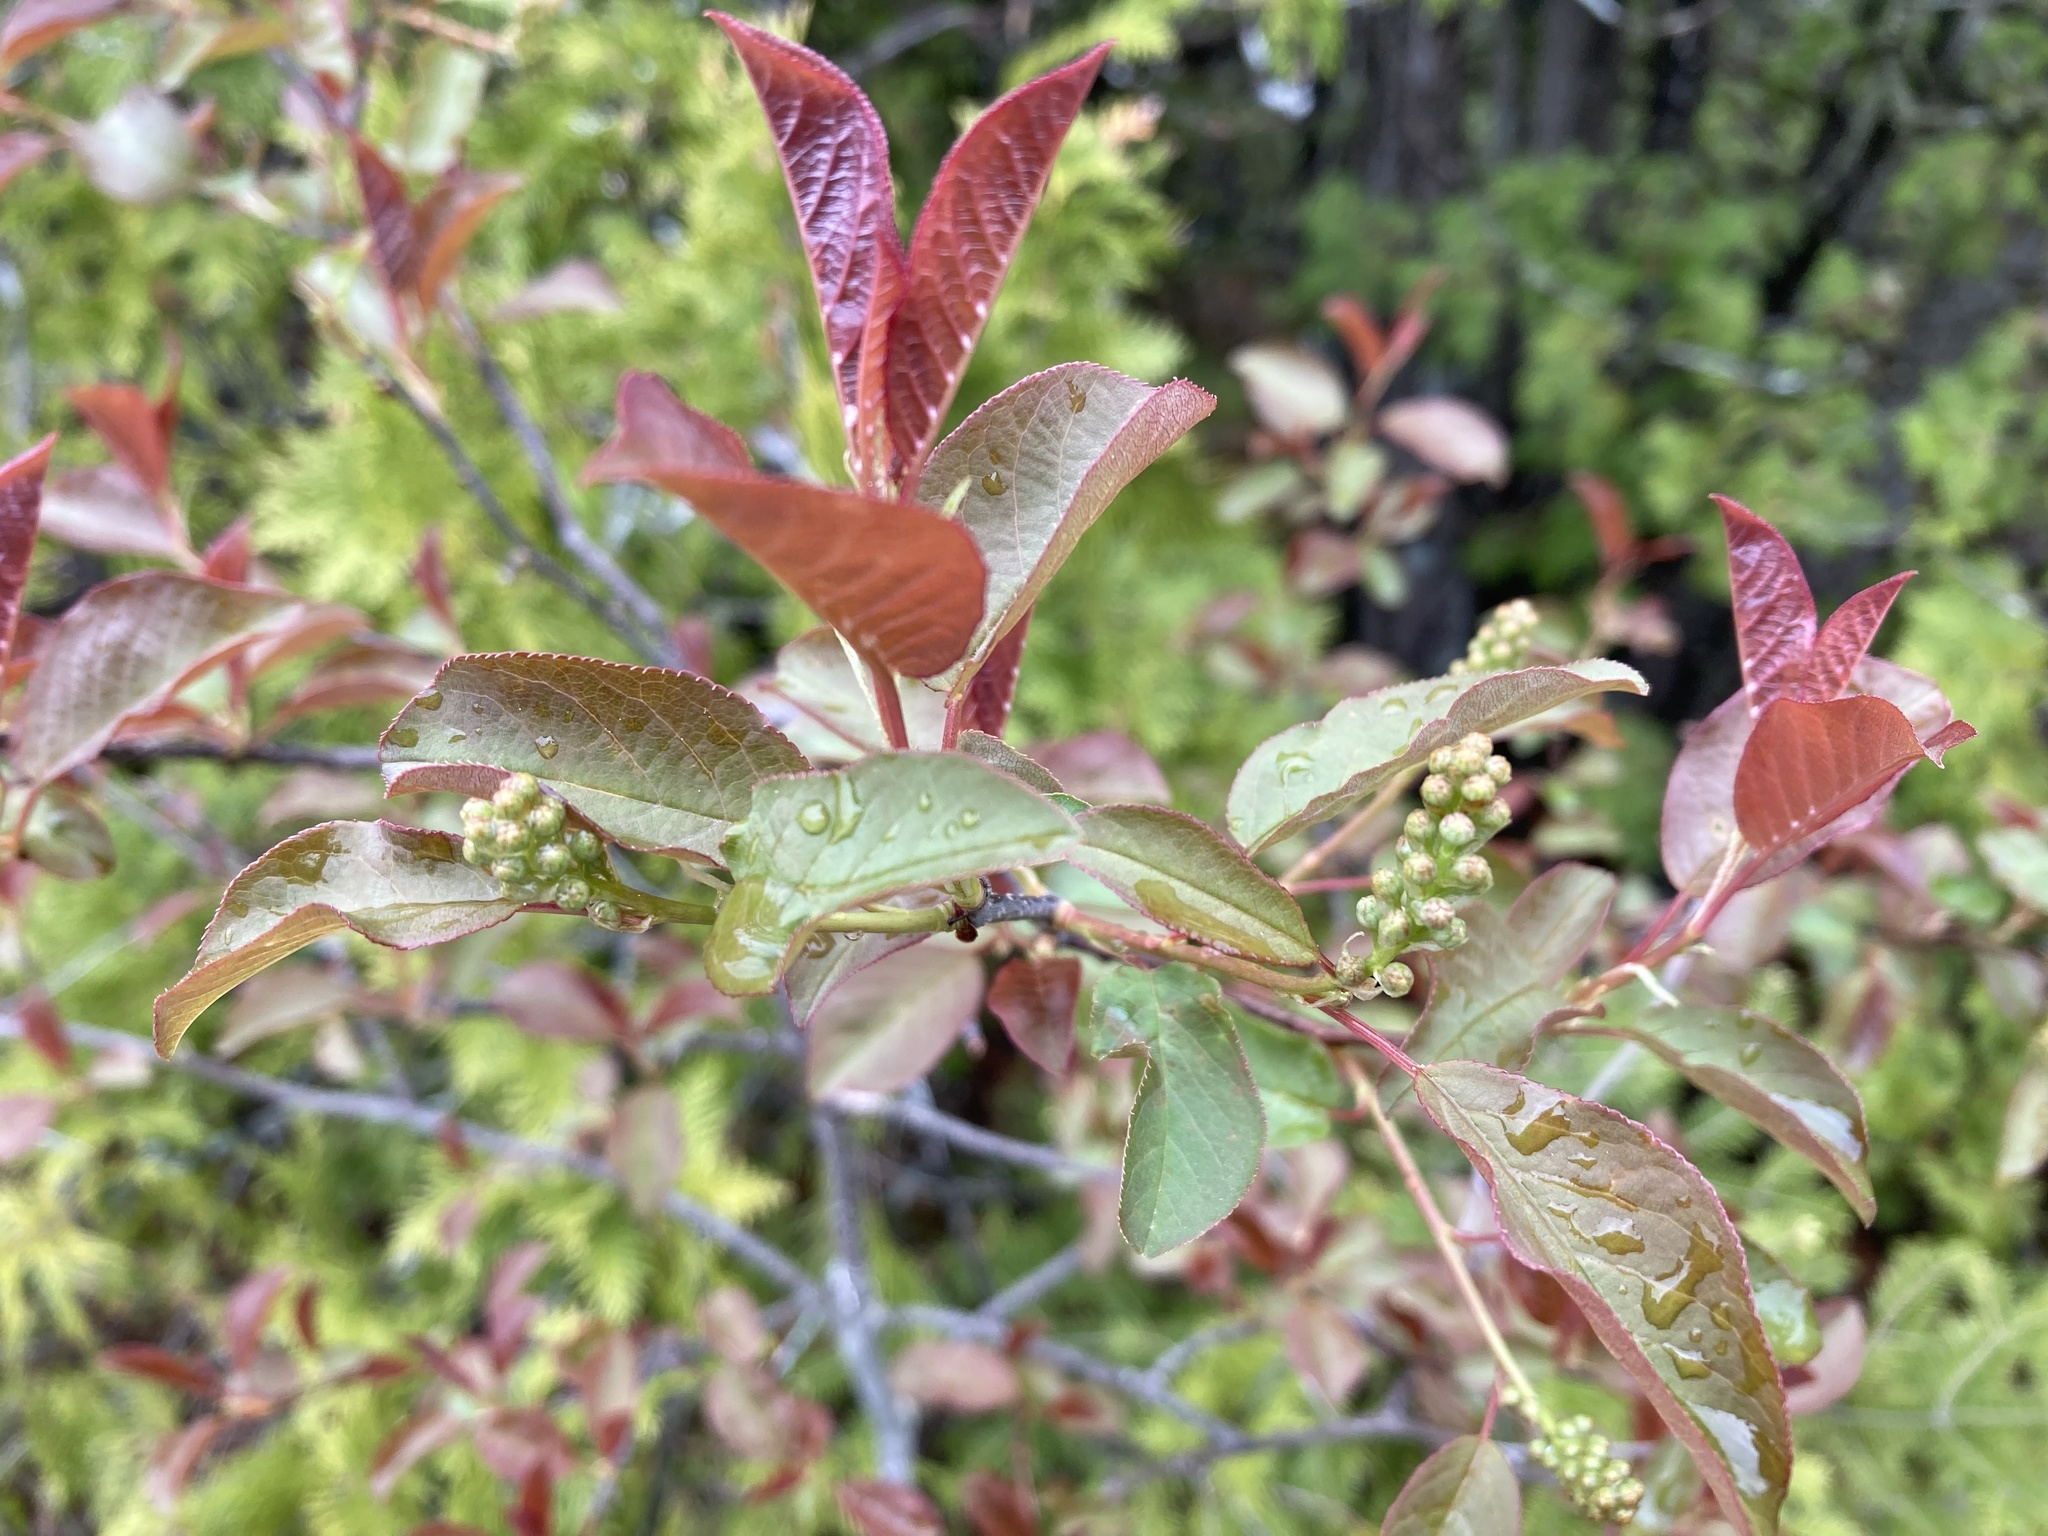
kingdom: Plantae
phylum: Tracheophyta
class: Magnoliopsida
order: Rosales
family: Rosaceae
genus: Prunus
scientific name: Prunus virginiana
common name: Chokecherry
